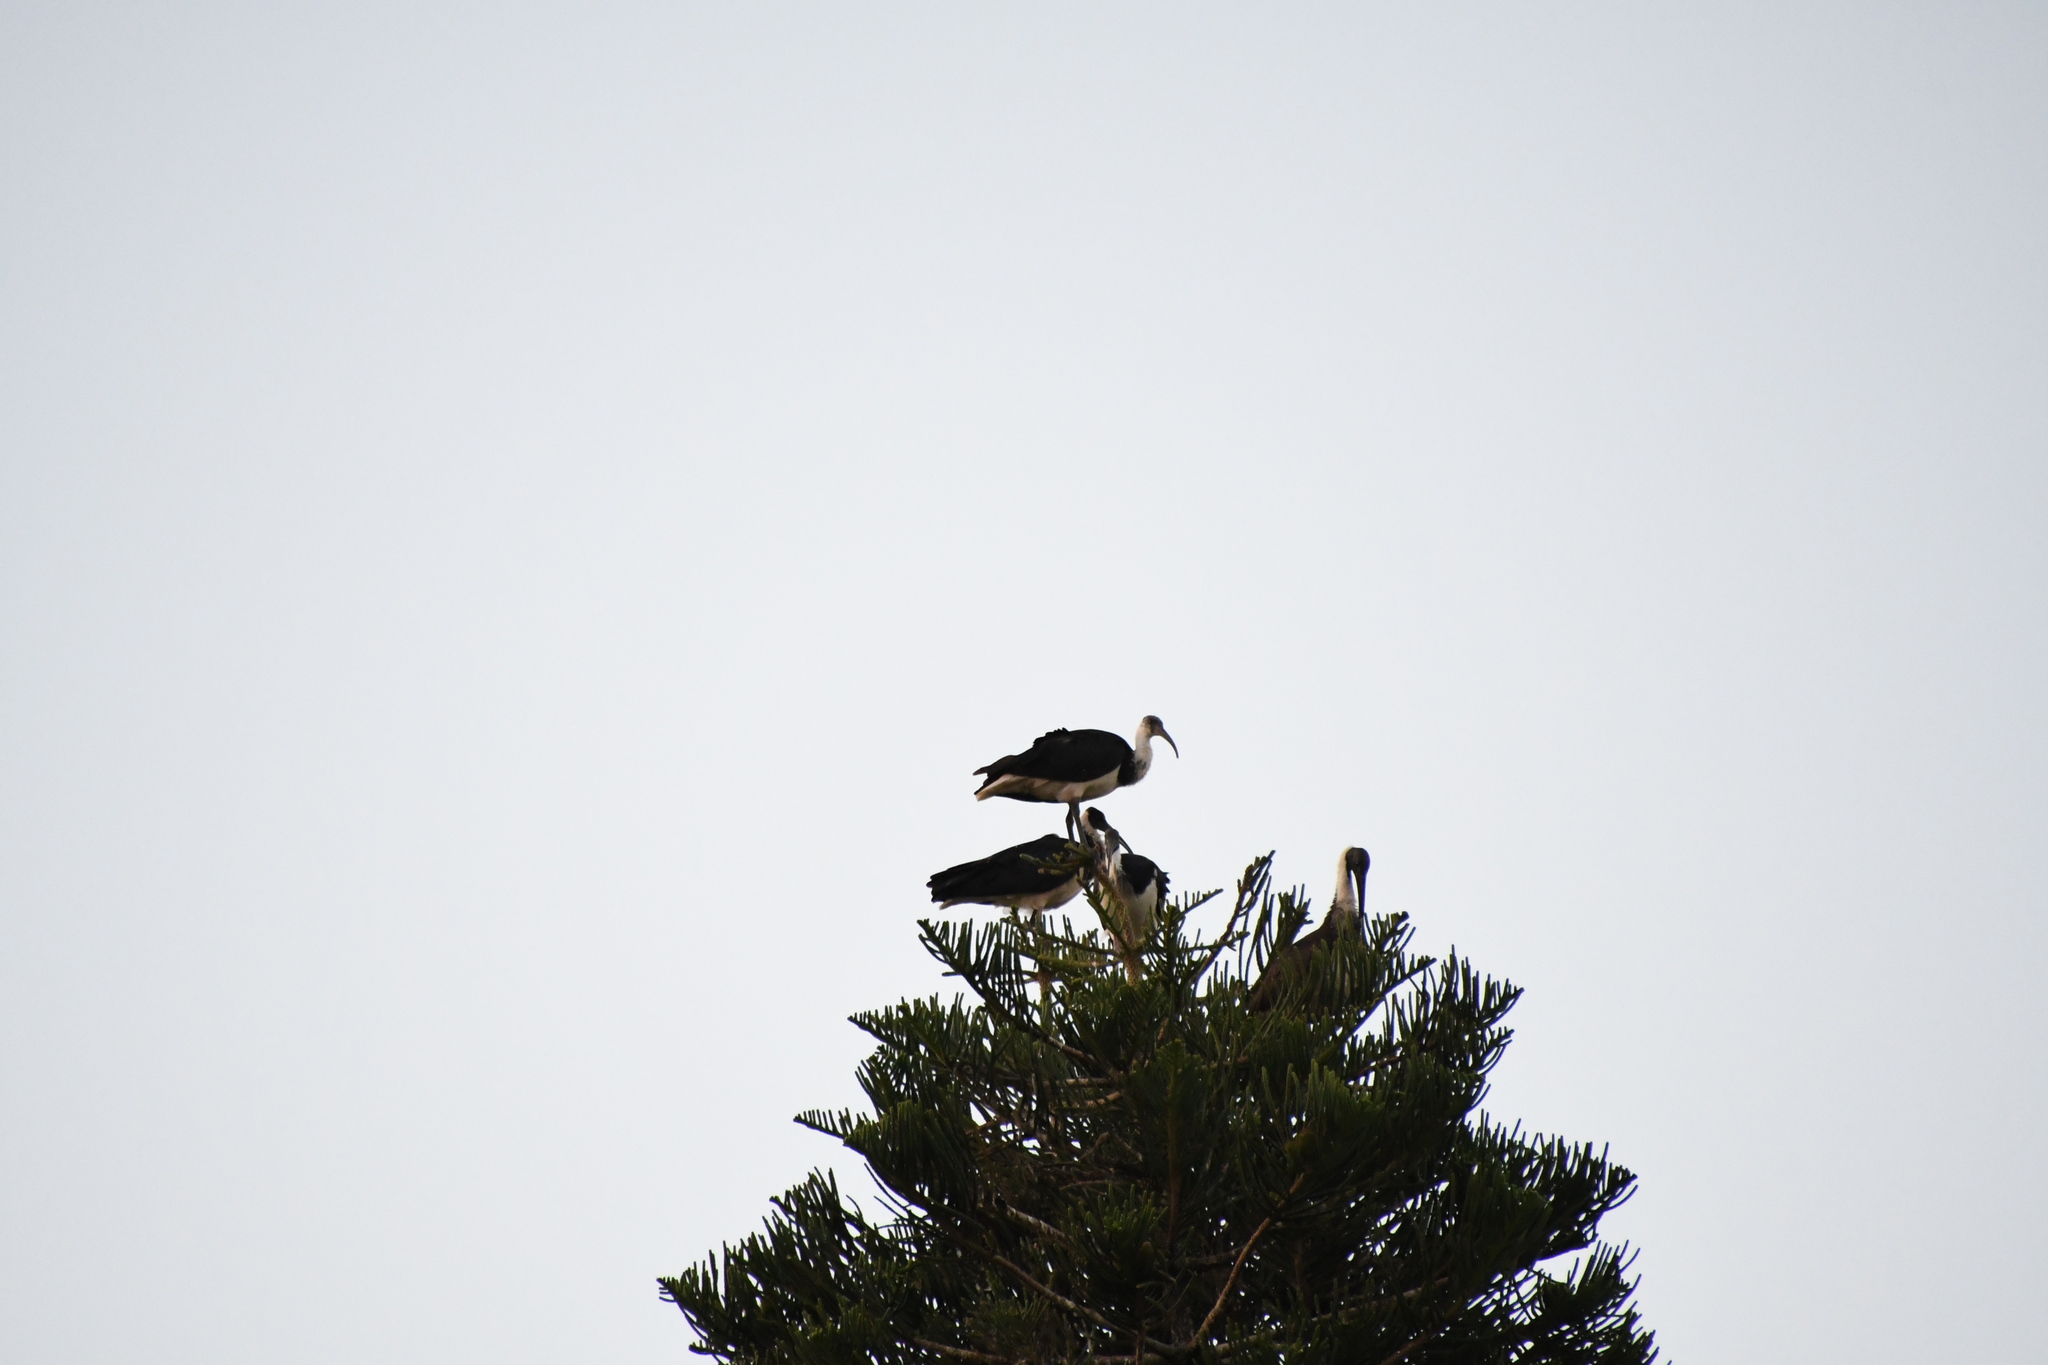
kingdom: Animalia
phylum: Chordata
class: Aves
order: Pelecaniformes
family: Threskiornithidae
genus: Threskiornis
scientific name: Threskiornis spinicollis
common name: Straw-necked ibis
